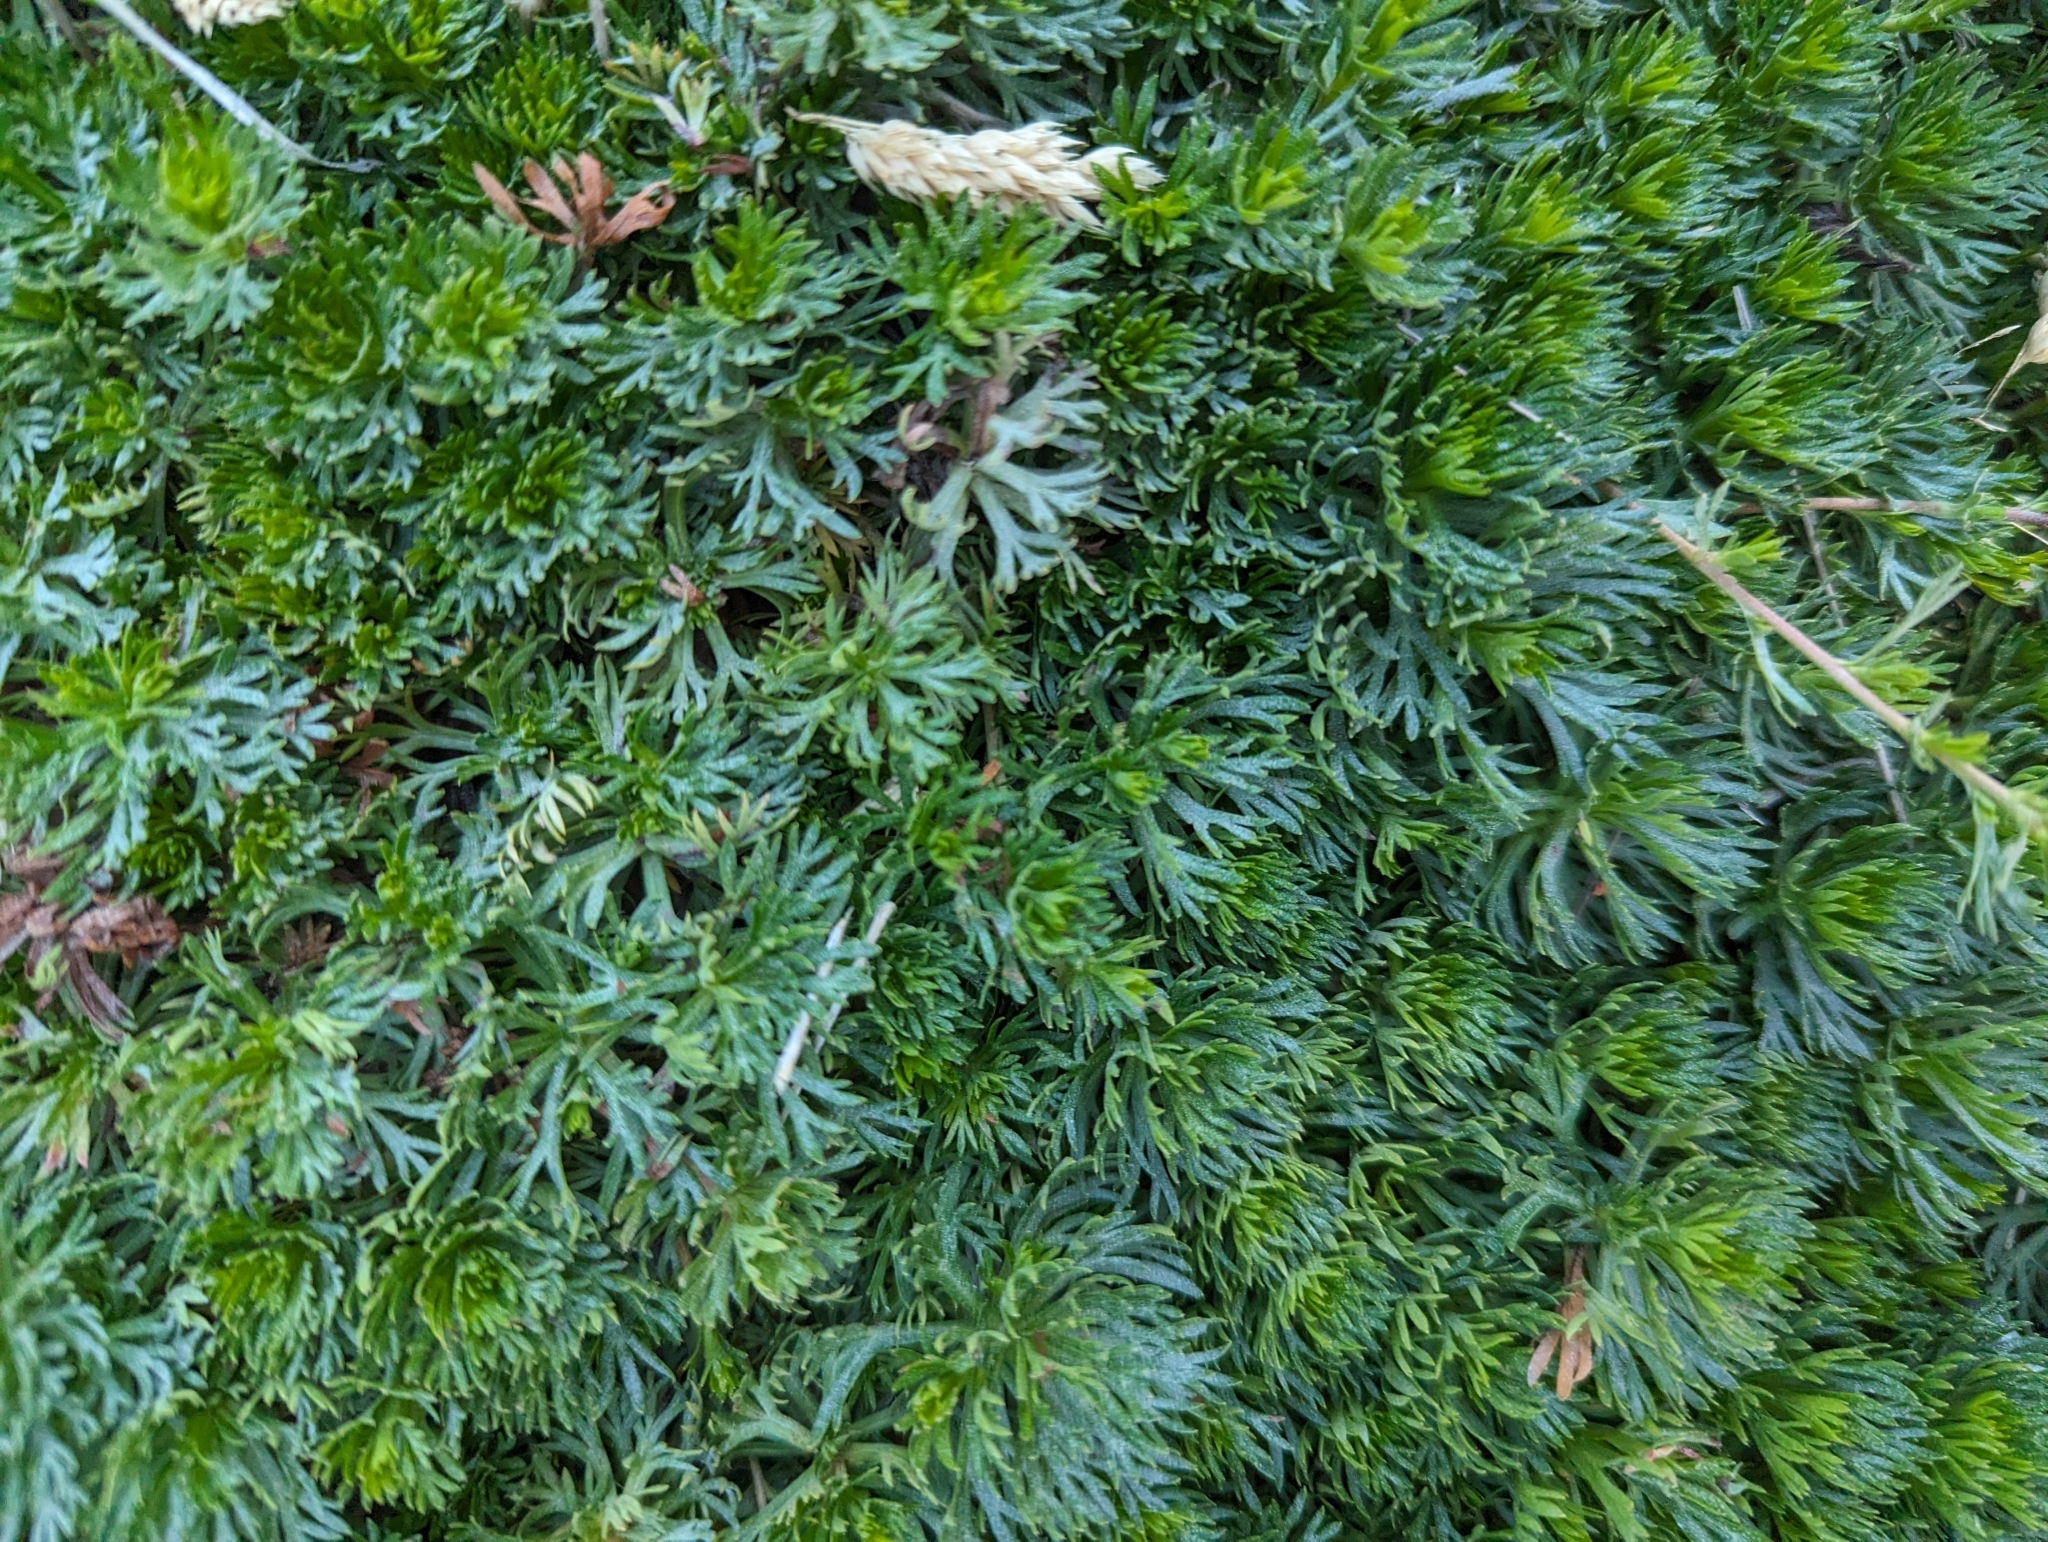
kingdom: Plantae
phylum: Tracheophyta
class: Magnoliopsida
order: Rosales
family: Rosaceae
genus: Luetkea
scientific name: Luetkea pectinata
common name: Partridgefoot
